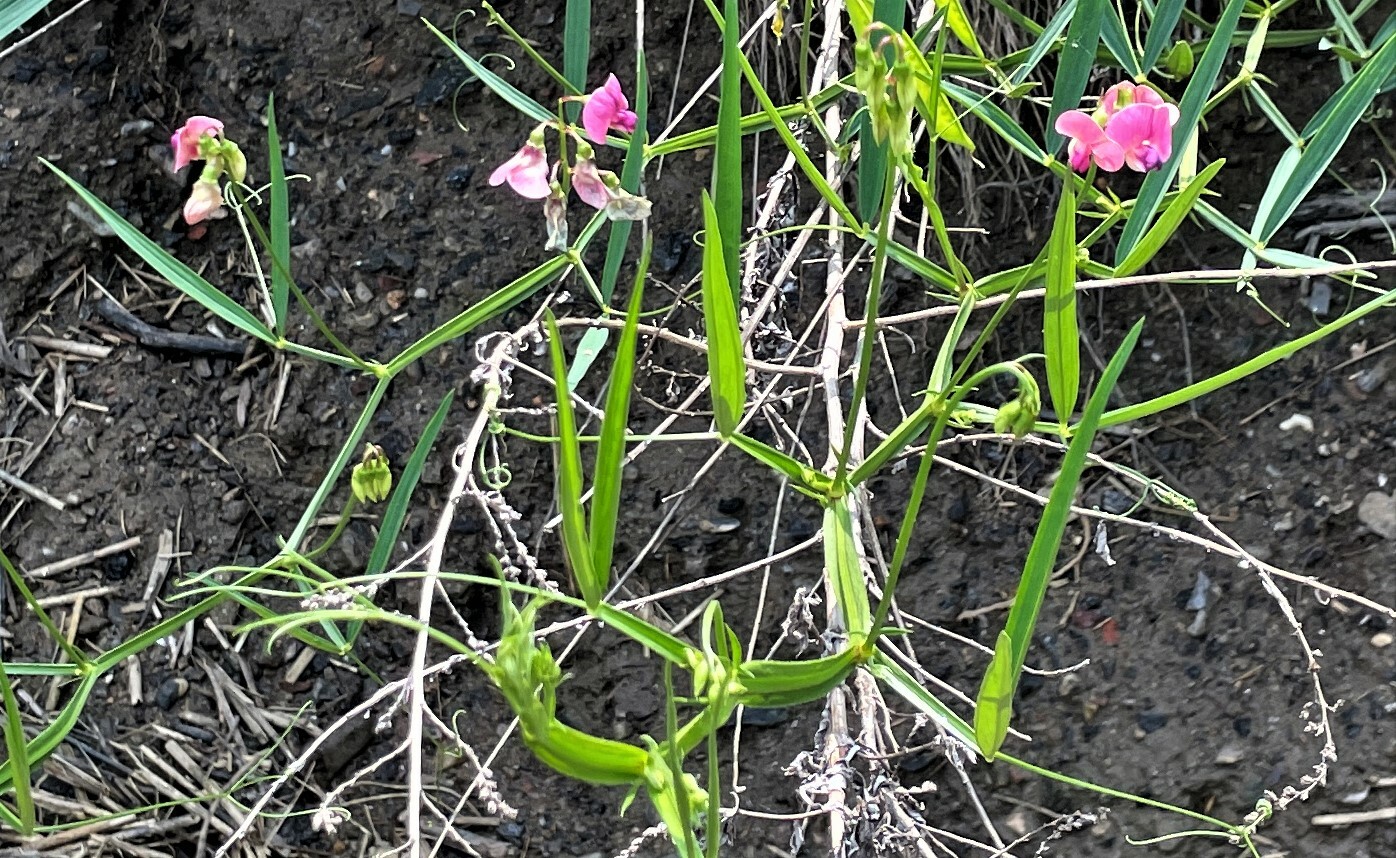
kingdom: Plantae
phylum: Tracheophyta
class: Magnoliopsida
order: Fabales
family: Fabaceae
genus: Lathyrus
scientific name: Lathyrus sylvestris
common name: Flat pea
